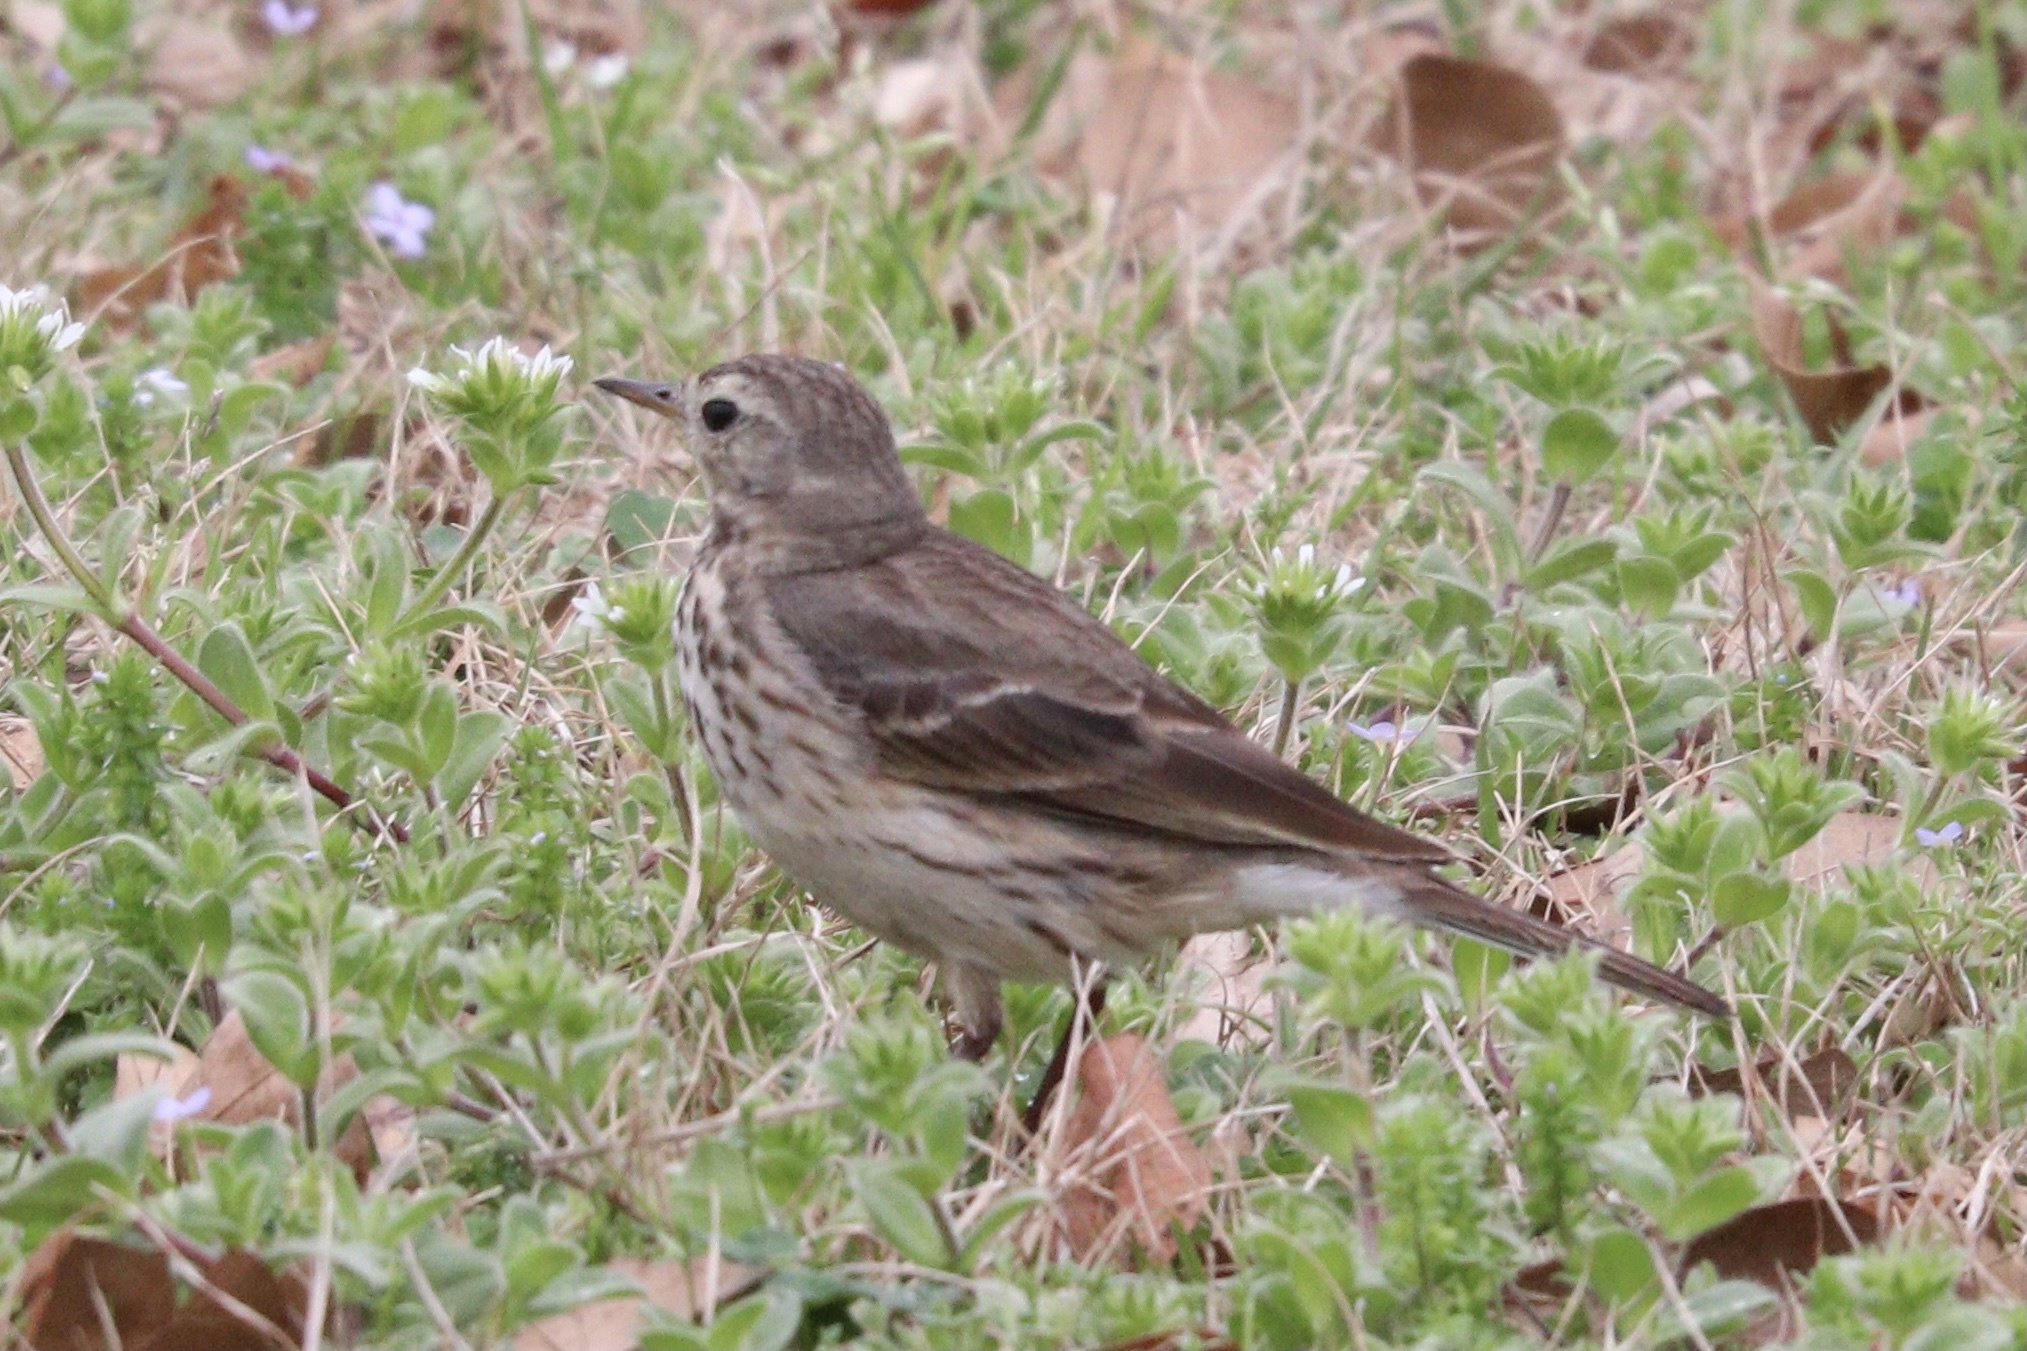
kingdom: Animalia
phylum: Chordata
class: Aves
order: Passeriformes
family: Motacillidae
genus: Anthus
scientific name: Anthus rubescens
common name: Buff-bellied pipit
